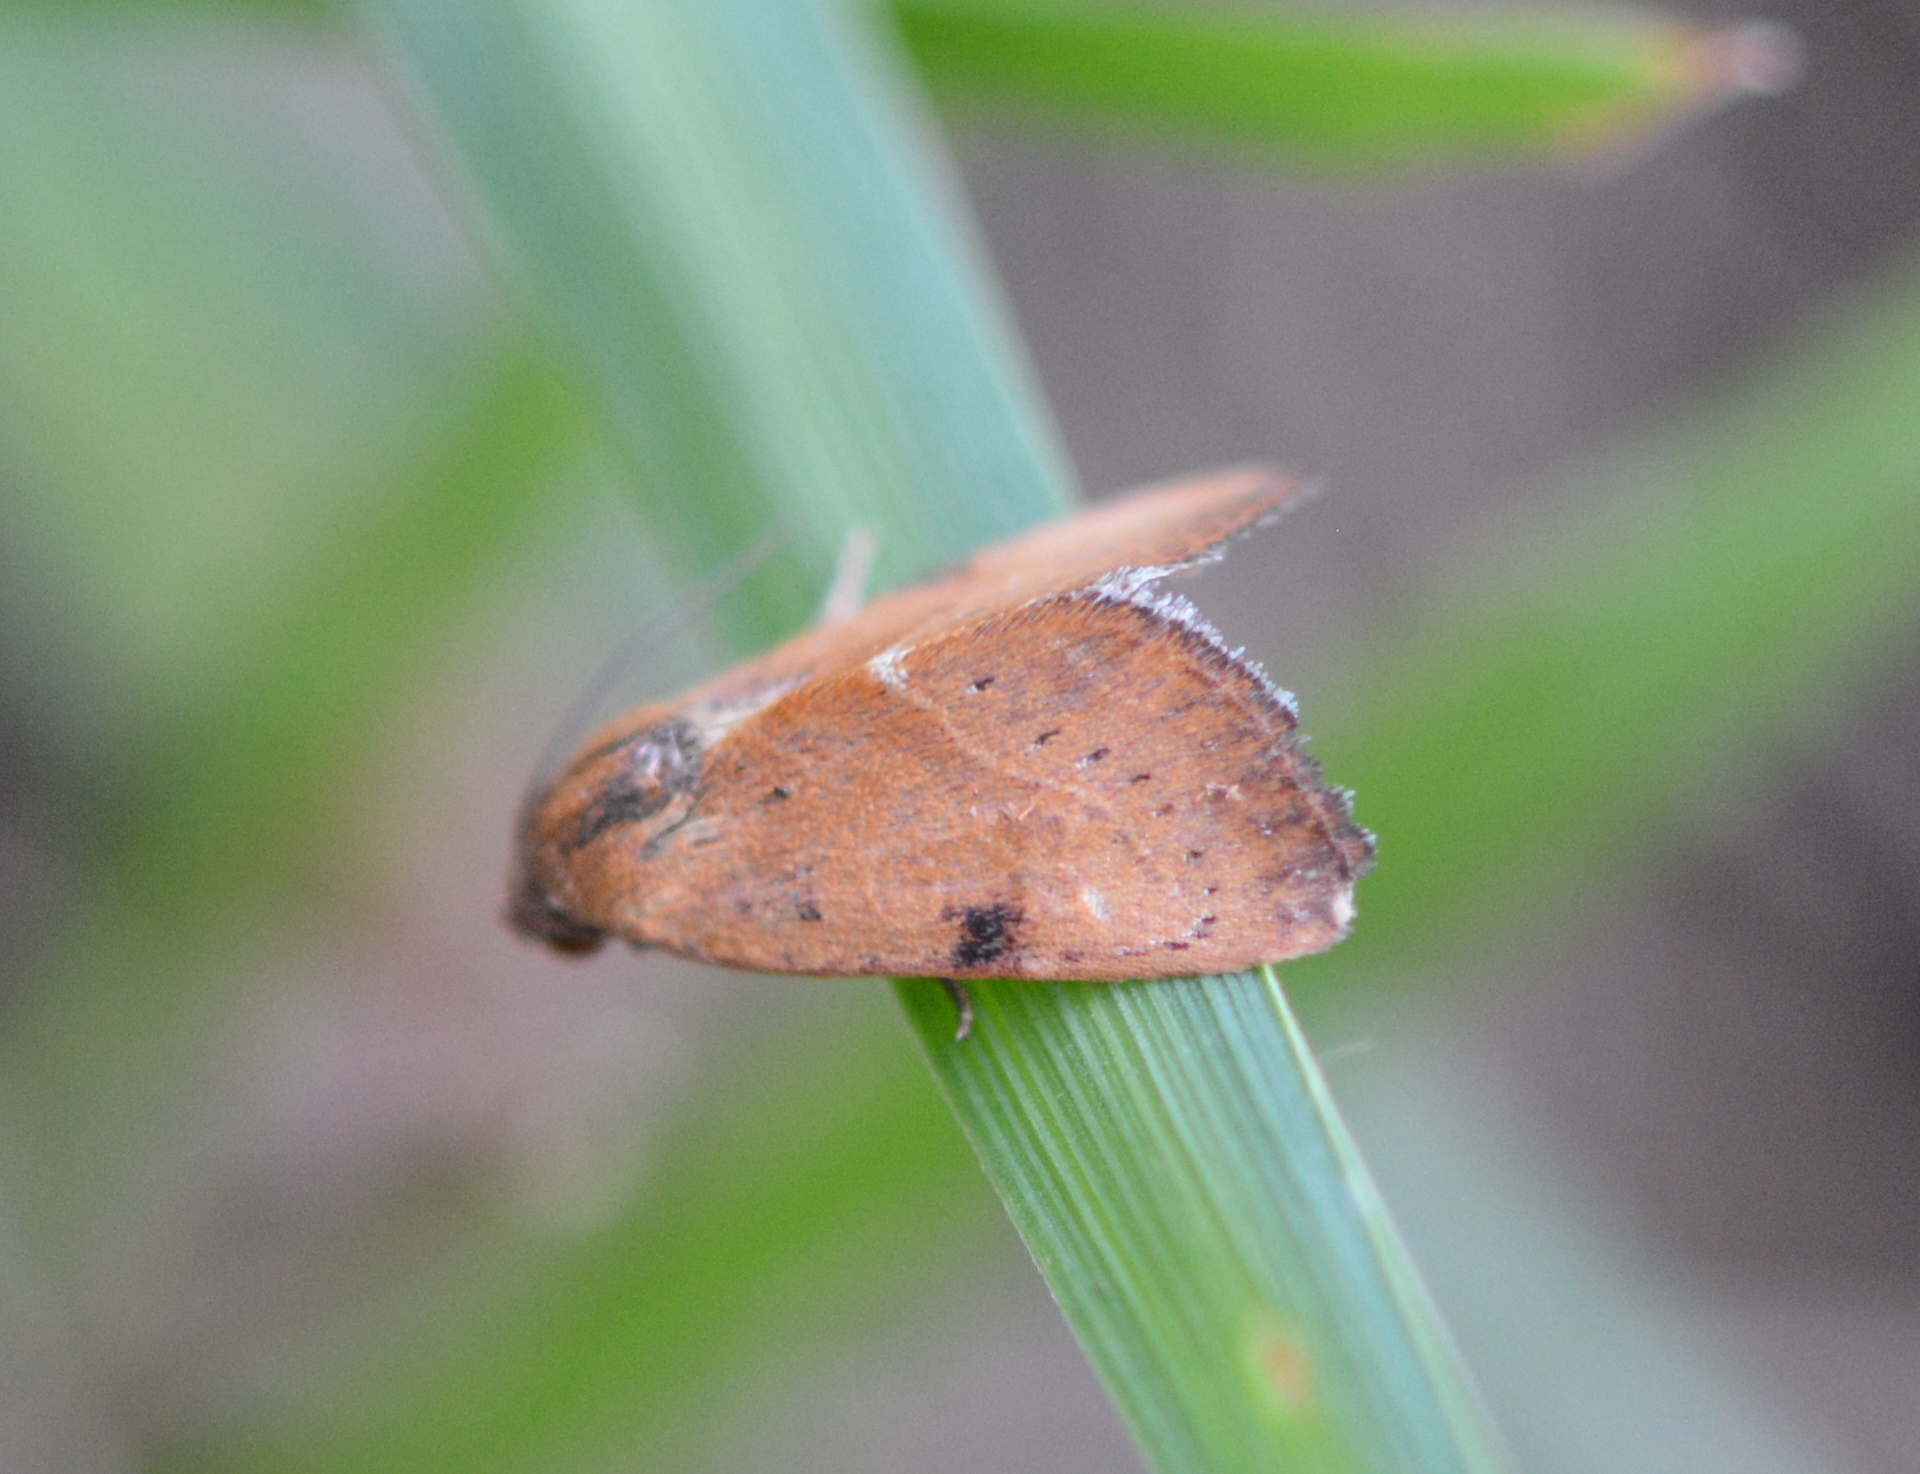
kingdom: Animalia
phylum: Arthropoda
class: Insecta
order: Lepidoptera
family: Noctuidae
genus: Galgula
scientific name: Galgula partita
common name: Wedgeling
